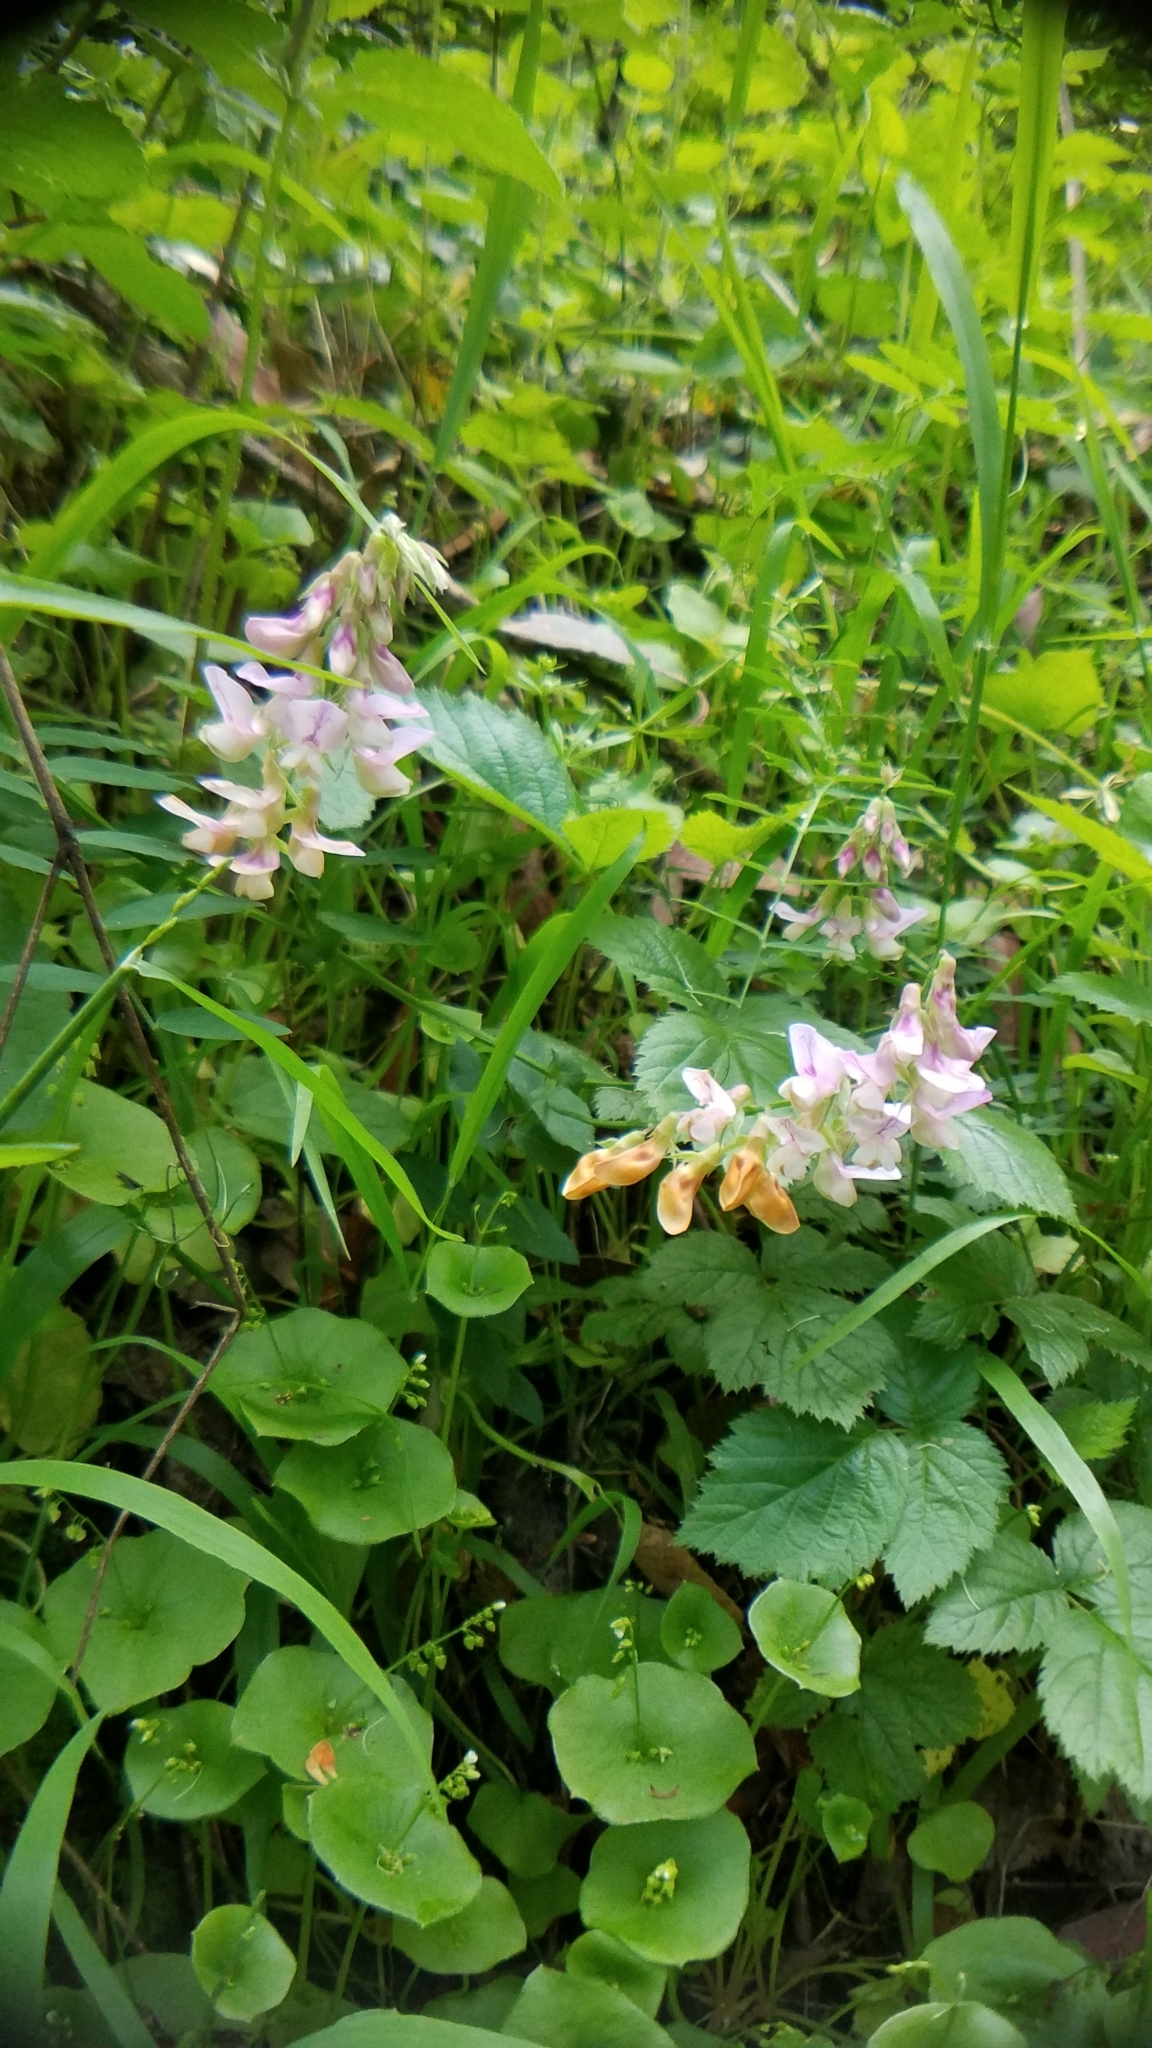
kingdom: Plantae
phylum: Tracheophyta
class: Magnoliopsida
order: Fabales
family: Fabaceae
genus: Lathyrus
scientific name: Lathyrus vestitus
